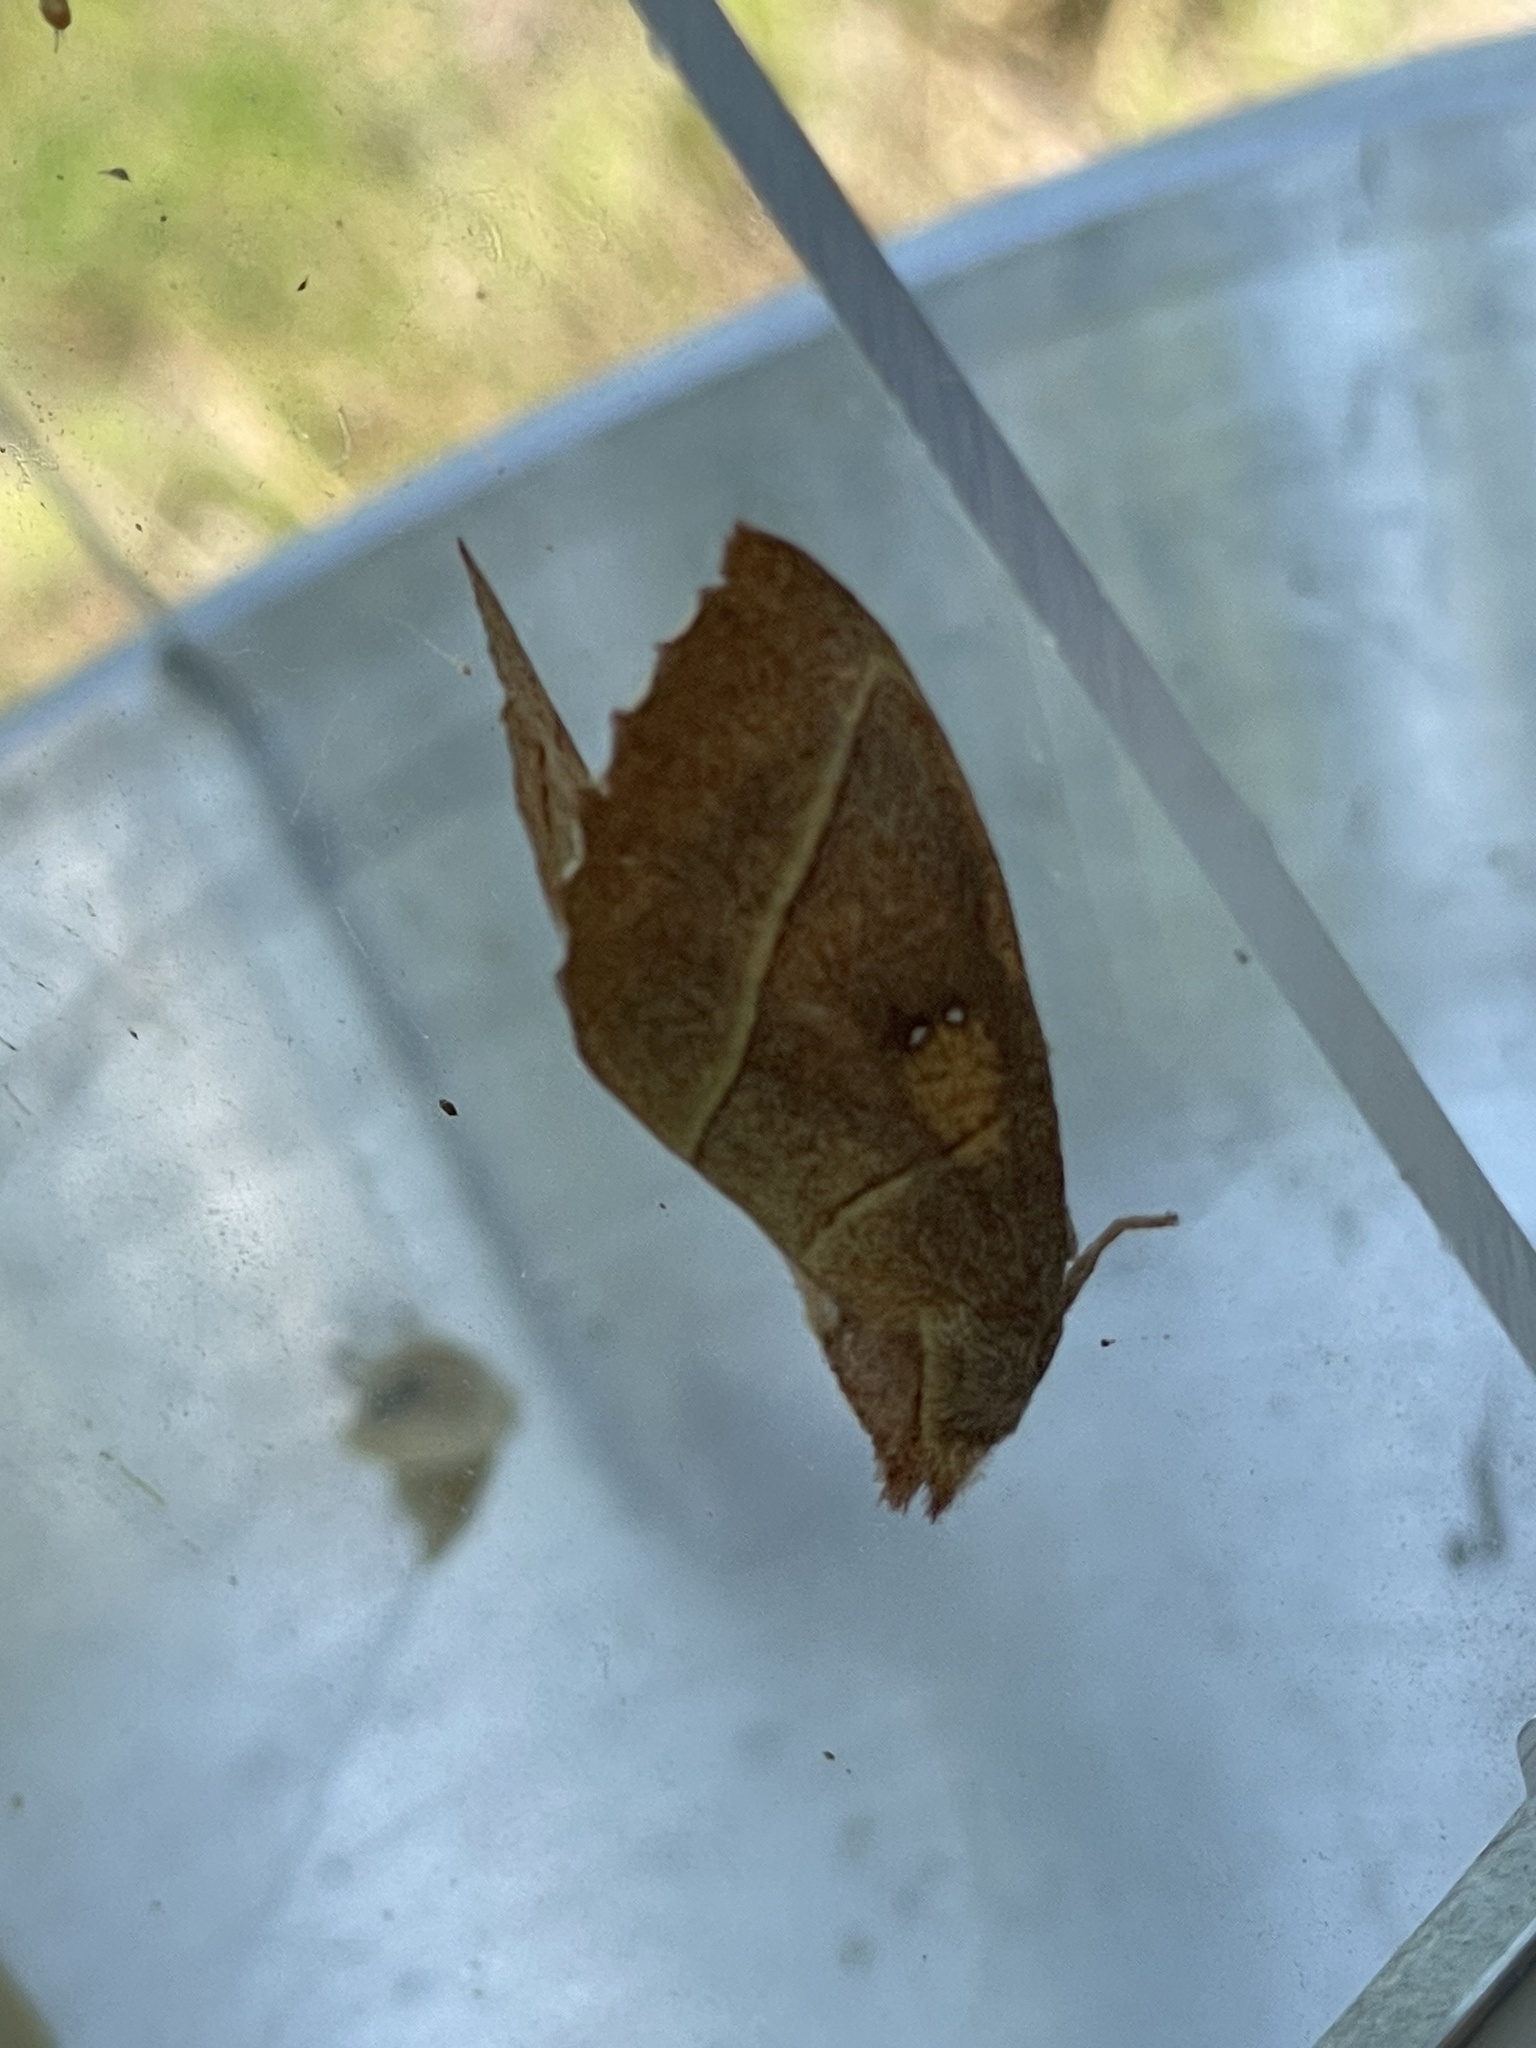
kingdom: Animalia
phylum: Arthropoda
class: Insecta
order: Lepidoptera
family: Notodontidae
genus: Nadata
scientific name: Nadata gibbosa
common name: White-dotted prominent
